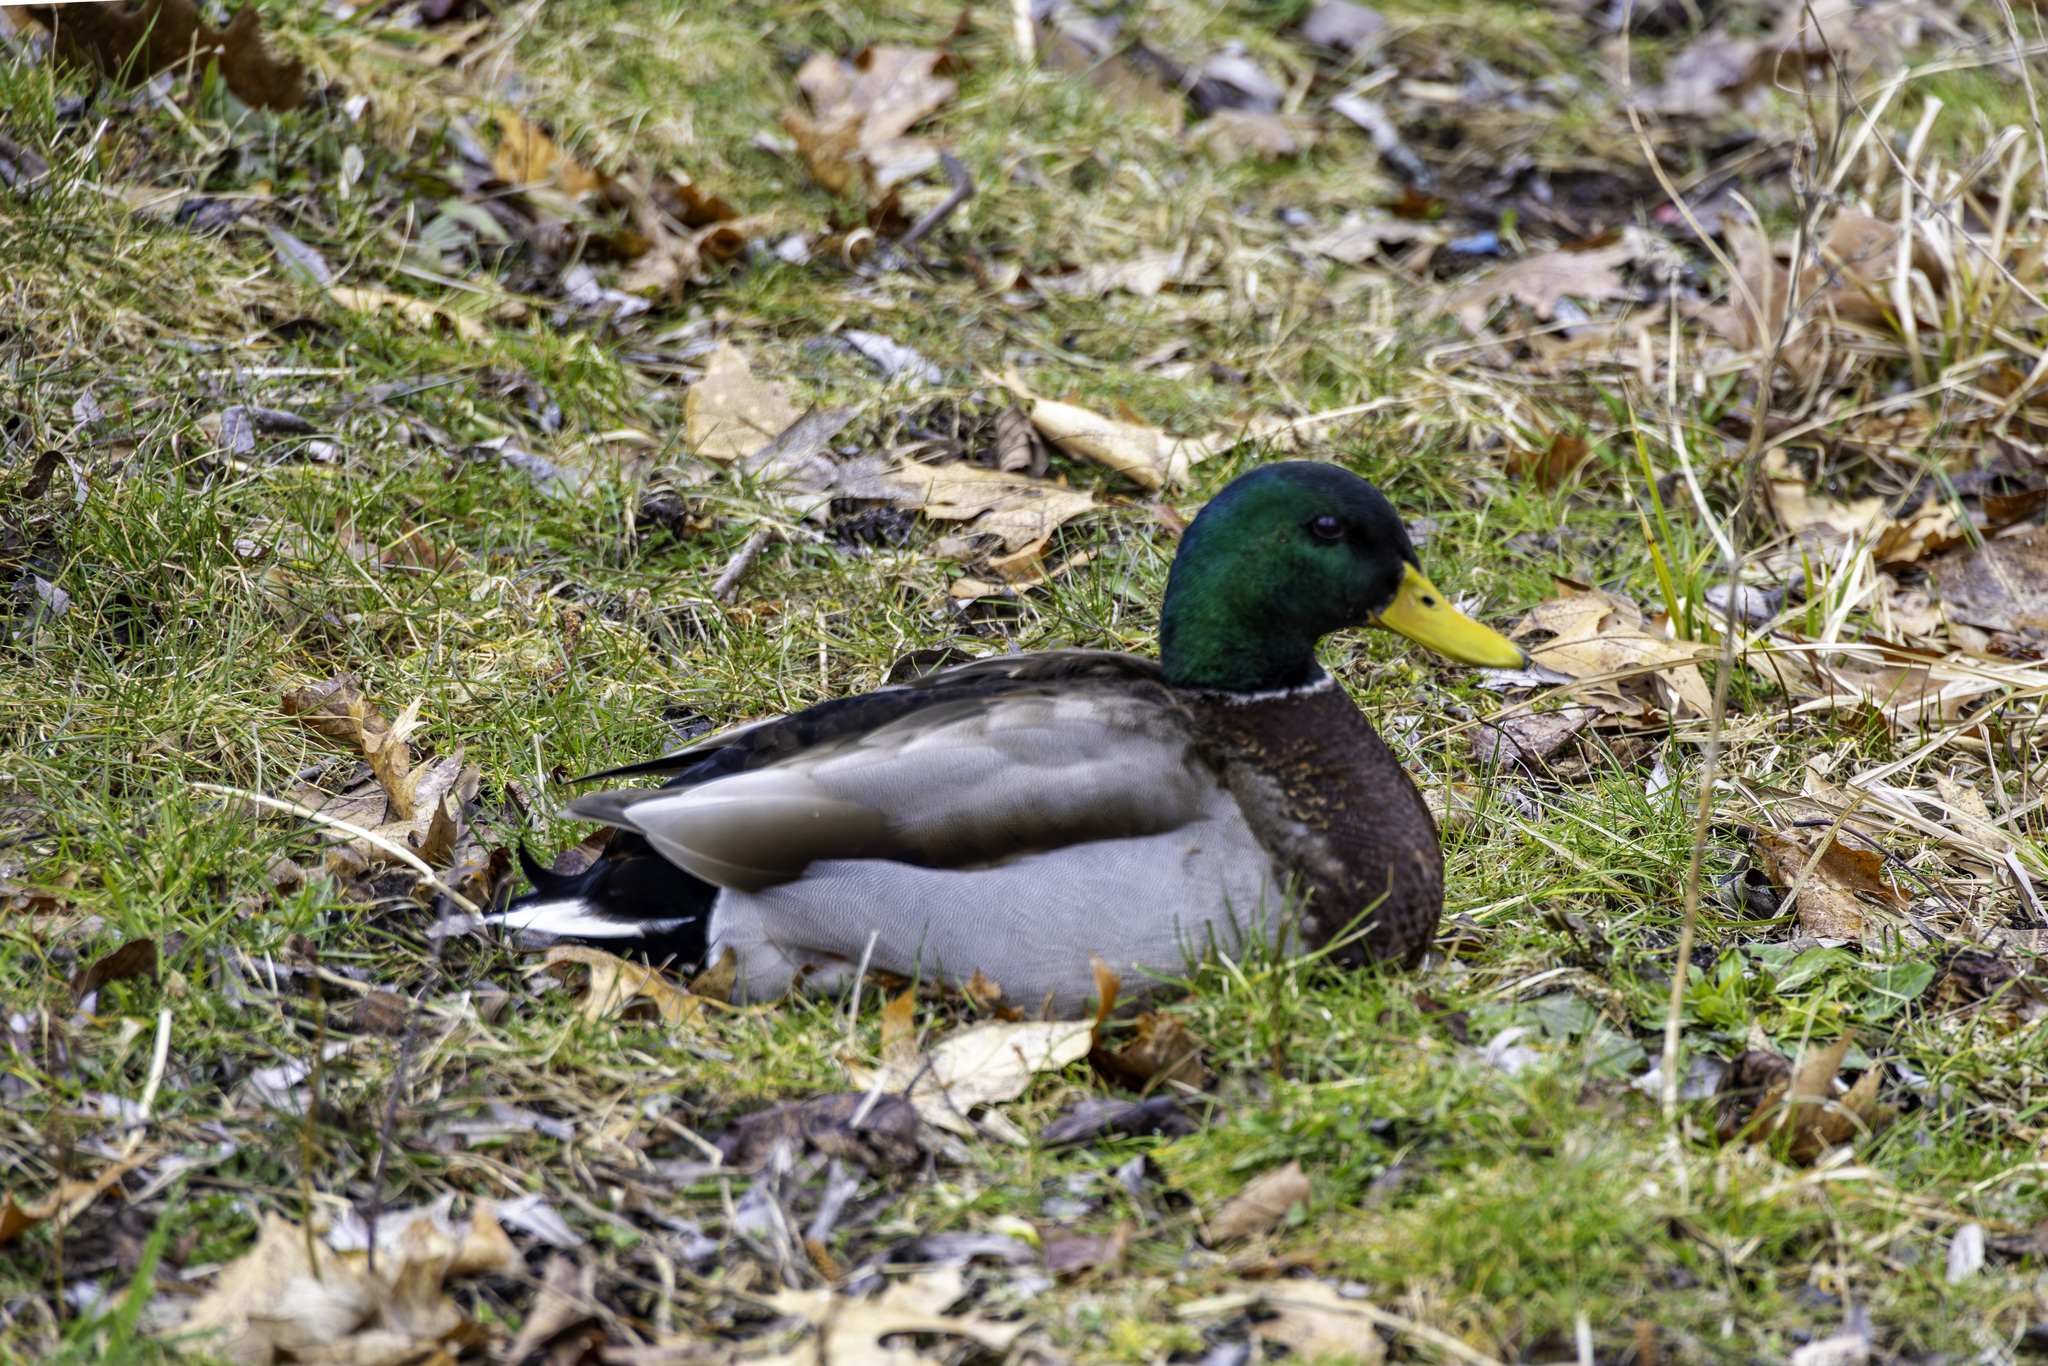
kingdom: Animalia
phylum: Chordata
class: Aves
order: Anseriformes
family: Anatidae
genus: Anas
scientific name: Anas platyrhynchos
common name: Mallard
